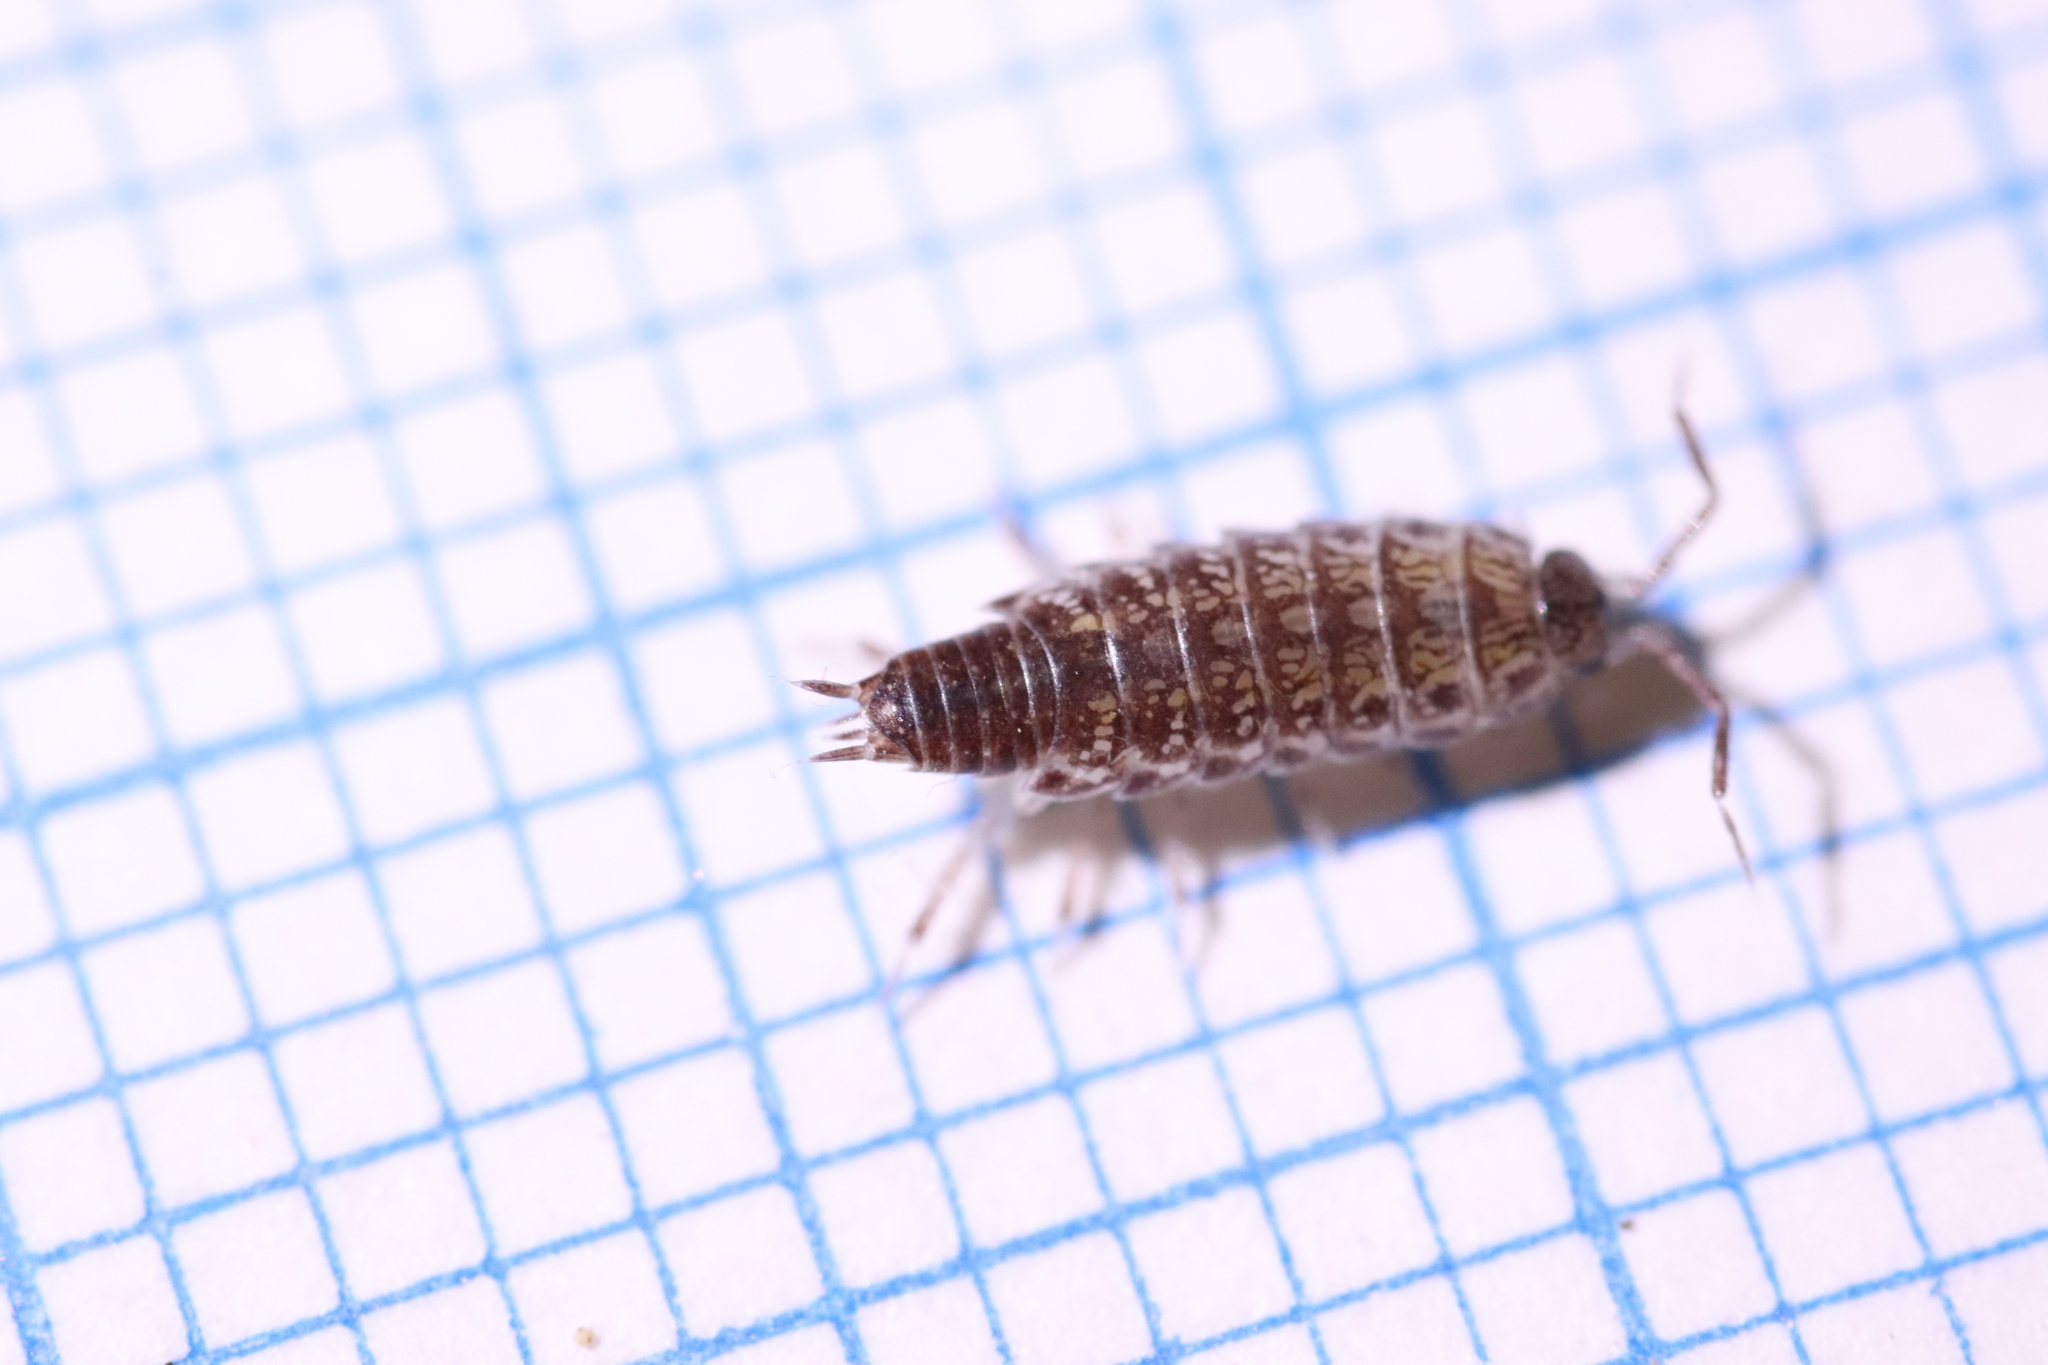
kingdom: Animalia
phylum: Arthropoda
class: Malacostraca
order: Isopoda
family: Philosciidae
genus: Chaetophiloscia
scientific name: Chaetophiloscia sicula
